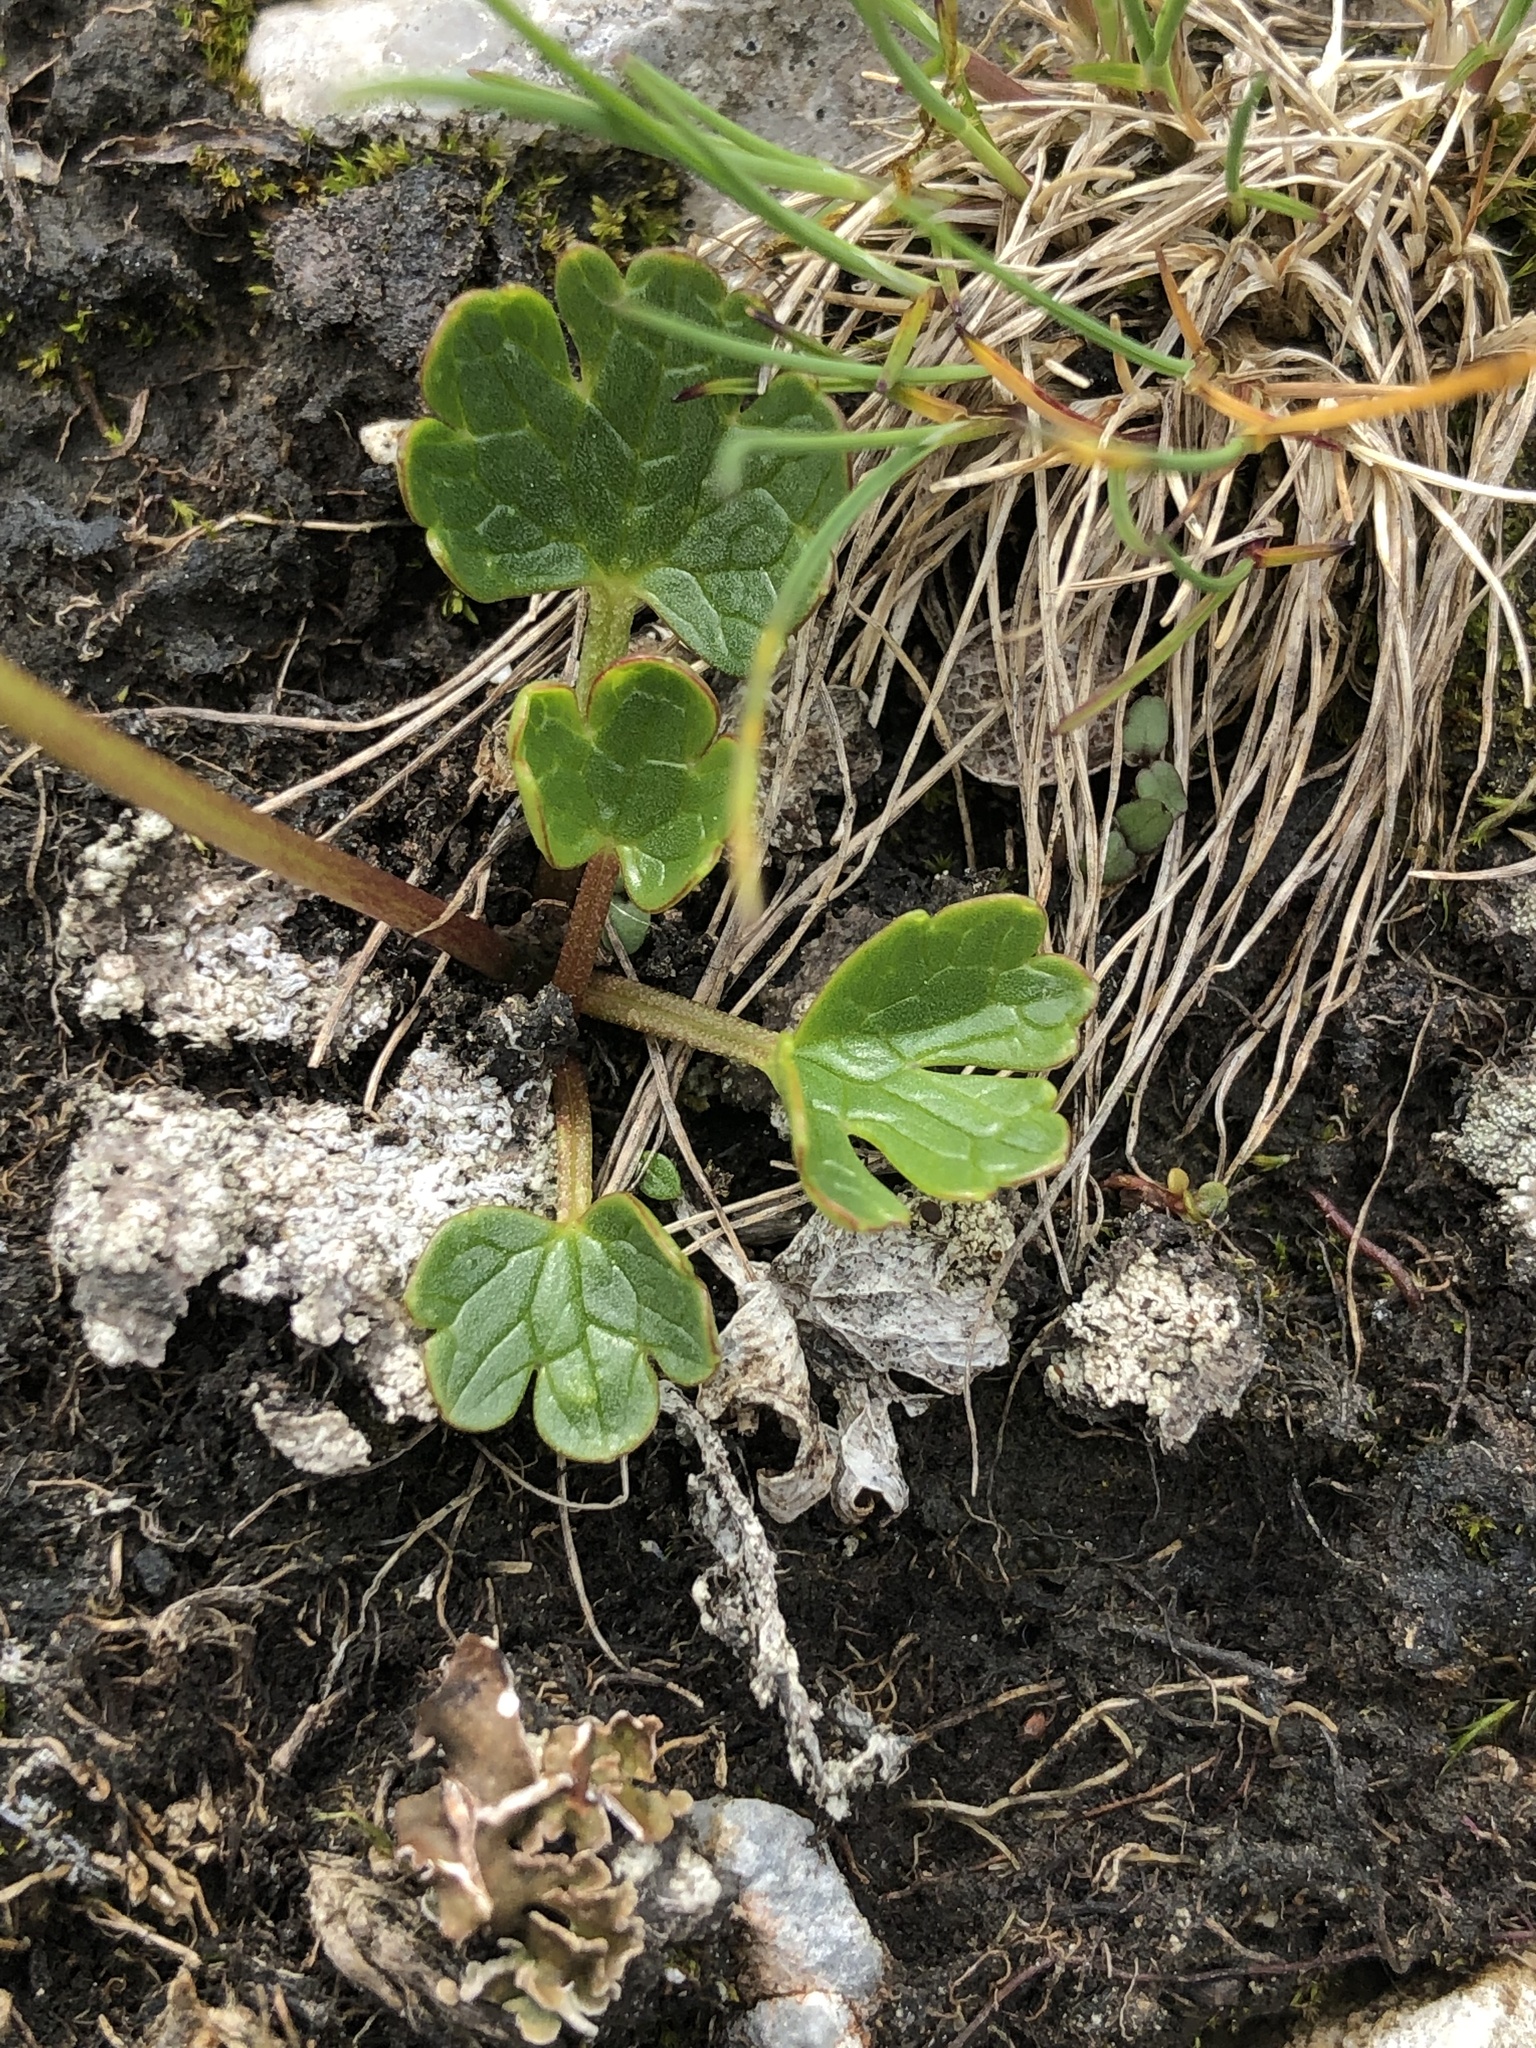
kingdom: Plantae
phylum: Tracheophyta
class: Magnoliopsida
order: Ranunculales
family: Ranunculaceae
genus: Ranunculus
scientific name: Ranunculus alpestris
